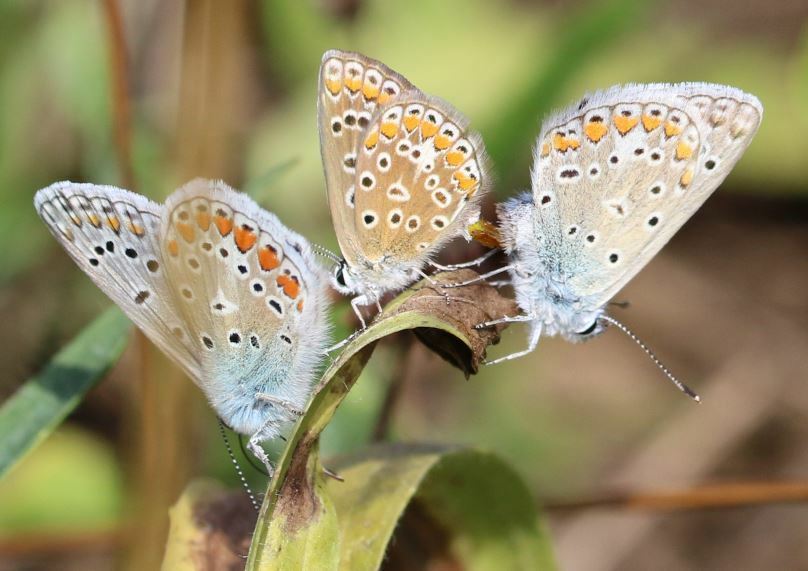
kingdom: Animalia
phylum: Arthropoda
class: Insecta
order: Lepidoptera
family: Lycaenidae
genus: Polyommatus
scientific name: Polyommatus icarus
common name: Common blue
